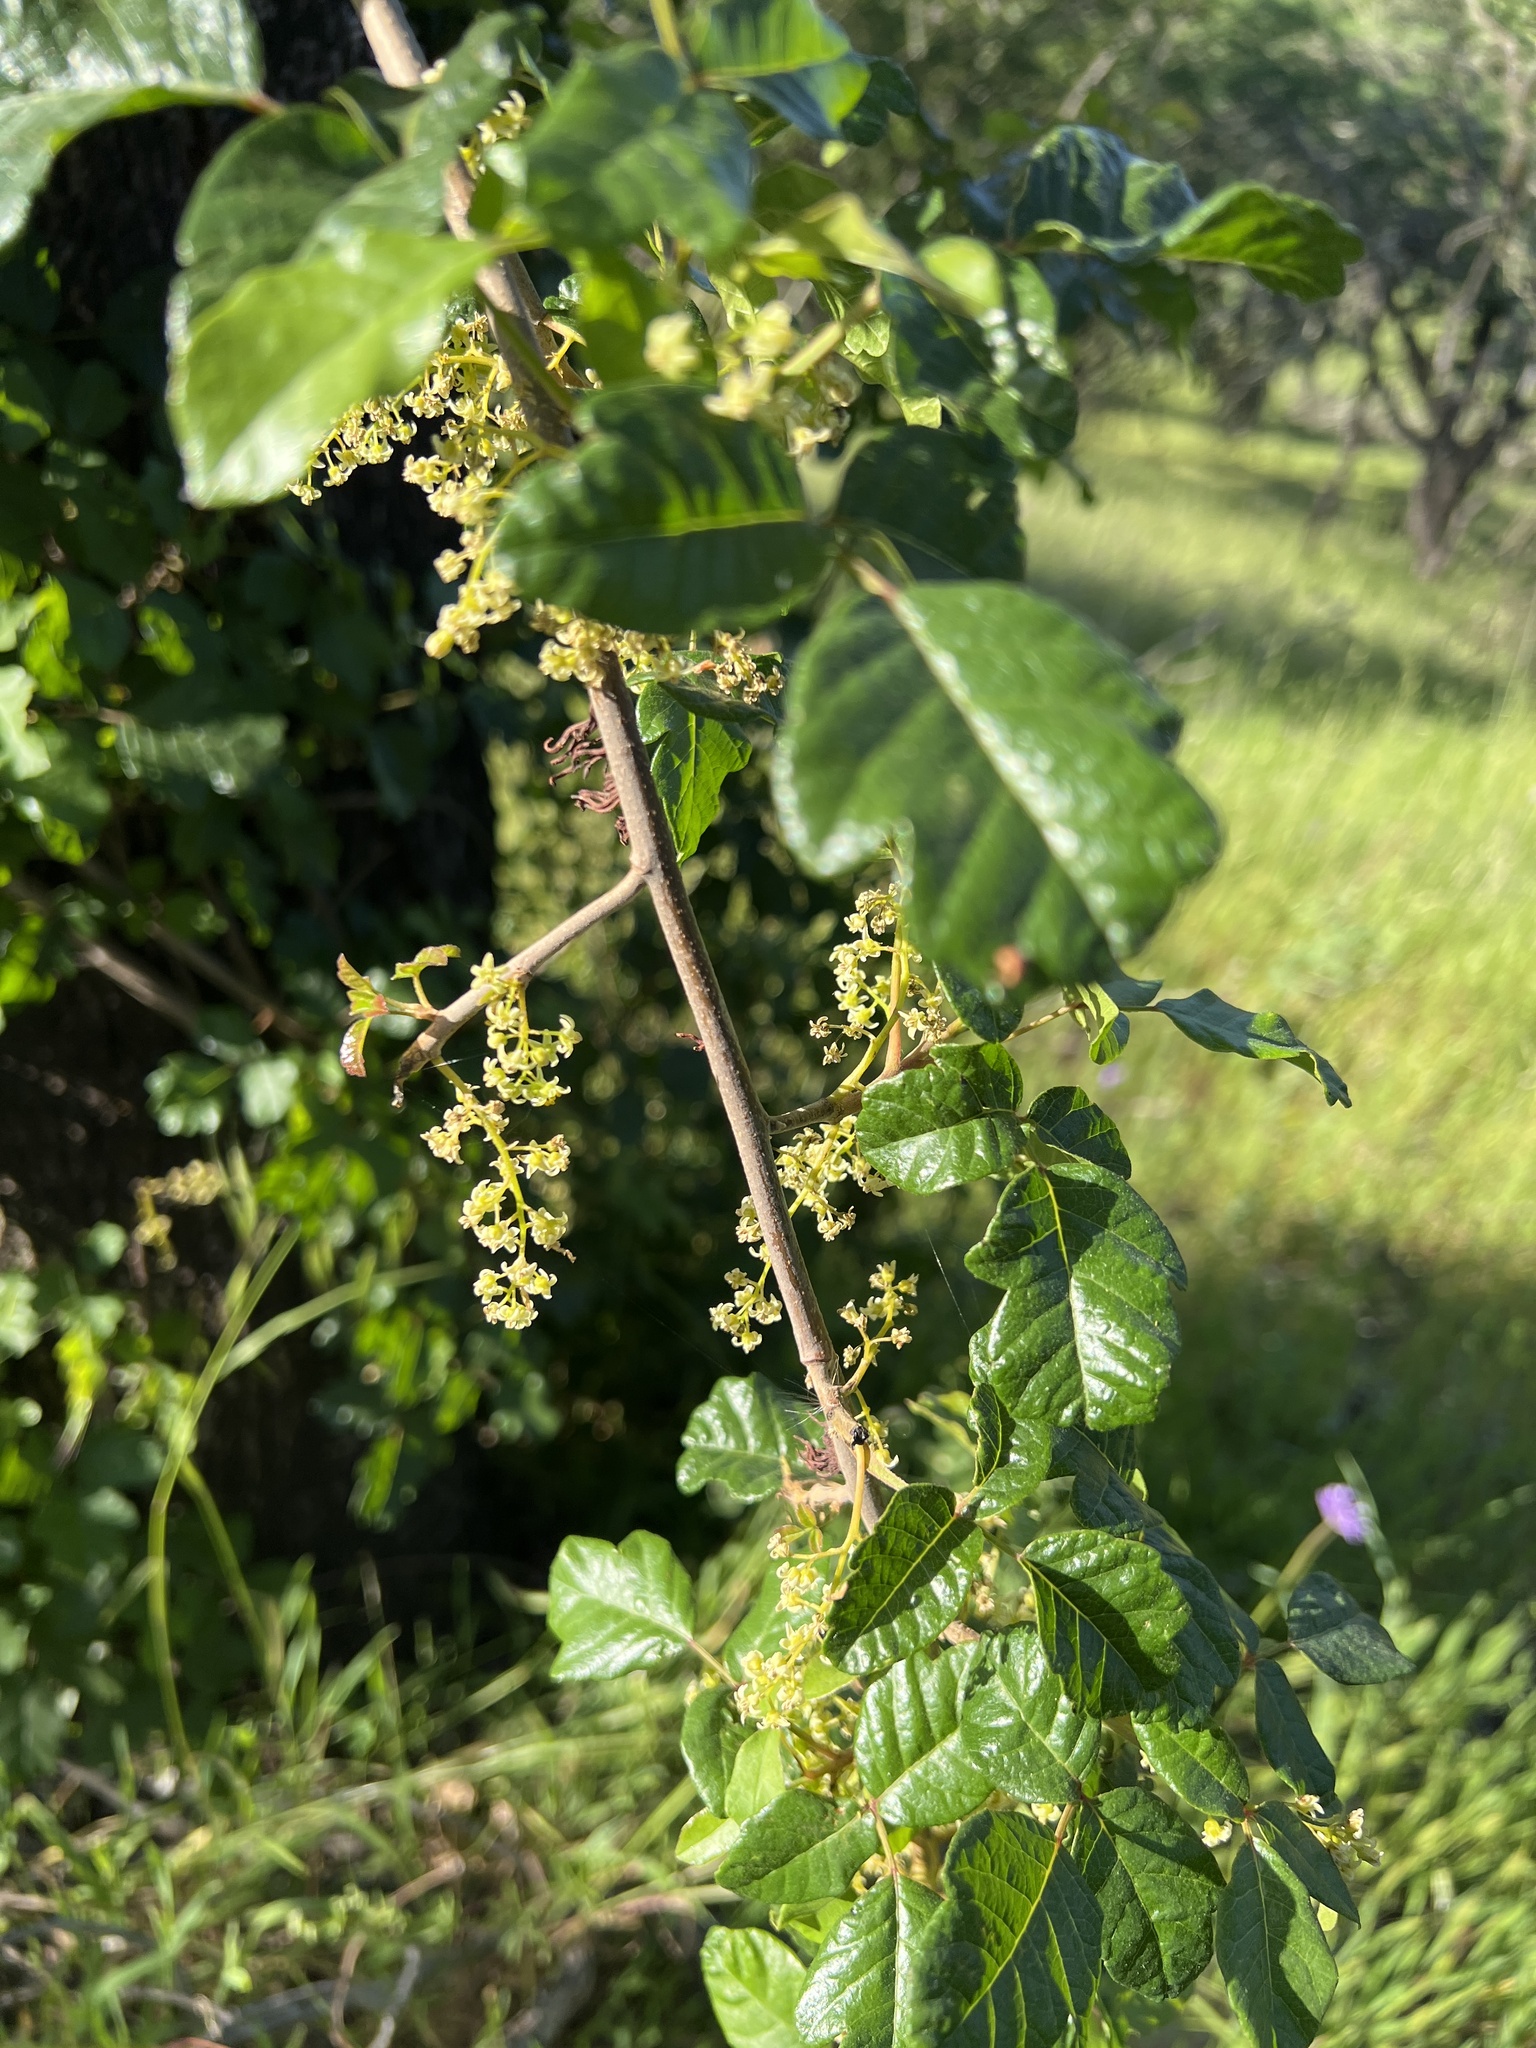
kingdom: Plantae
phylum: Tracheophyta
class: Magnoliopsida
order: Sapindales
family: Anacardiaceae
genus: Toxicodendron
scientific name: Toxicodendron diversilobum
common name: Pacific poison-oak
